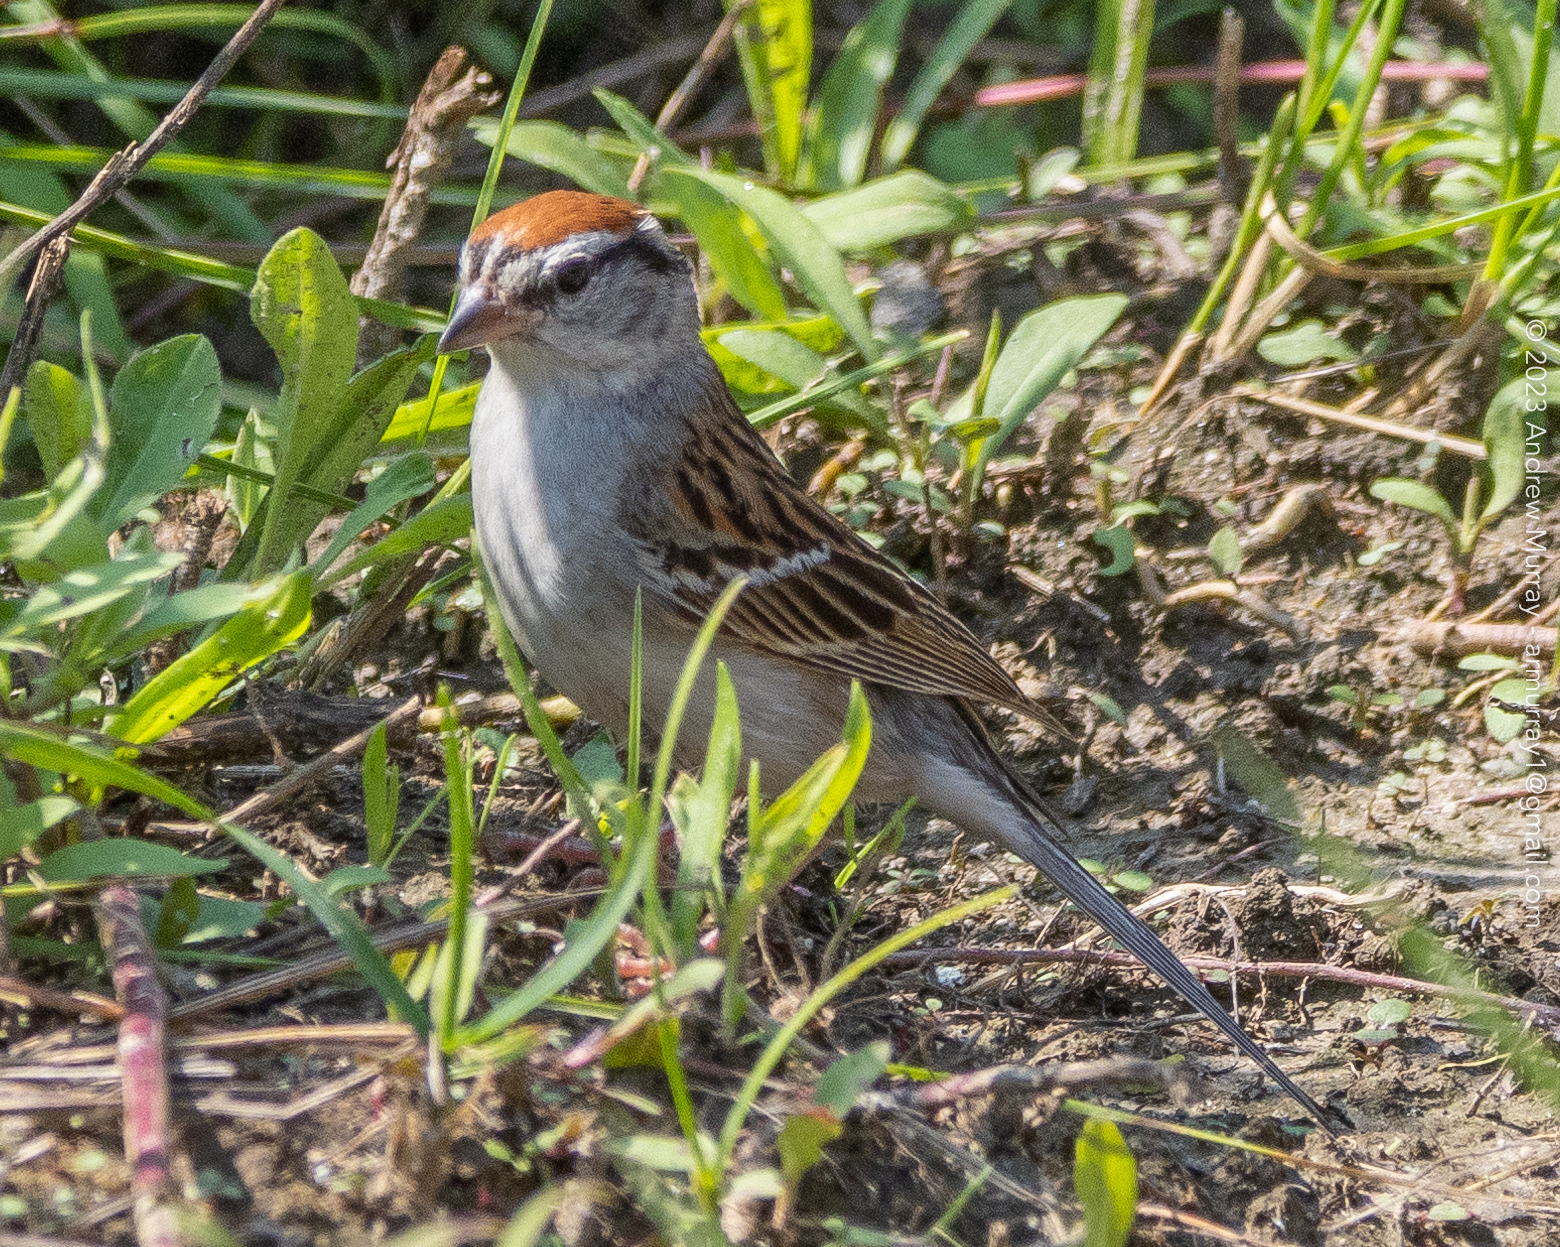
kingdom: Animalia
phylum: Chordata
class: Aves
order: Passeriformes
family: Passerellidae
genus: Spizella
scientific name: Spizella passerina
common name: Chipping sparrow
